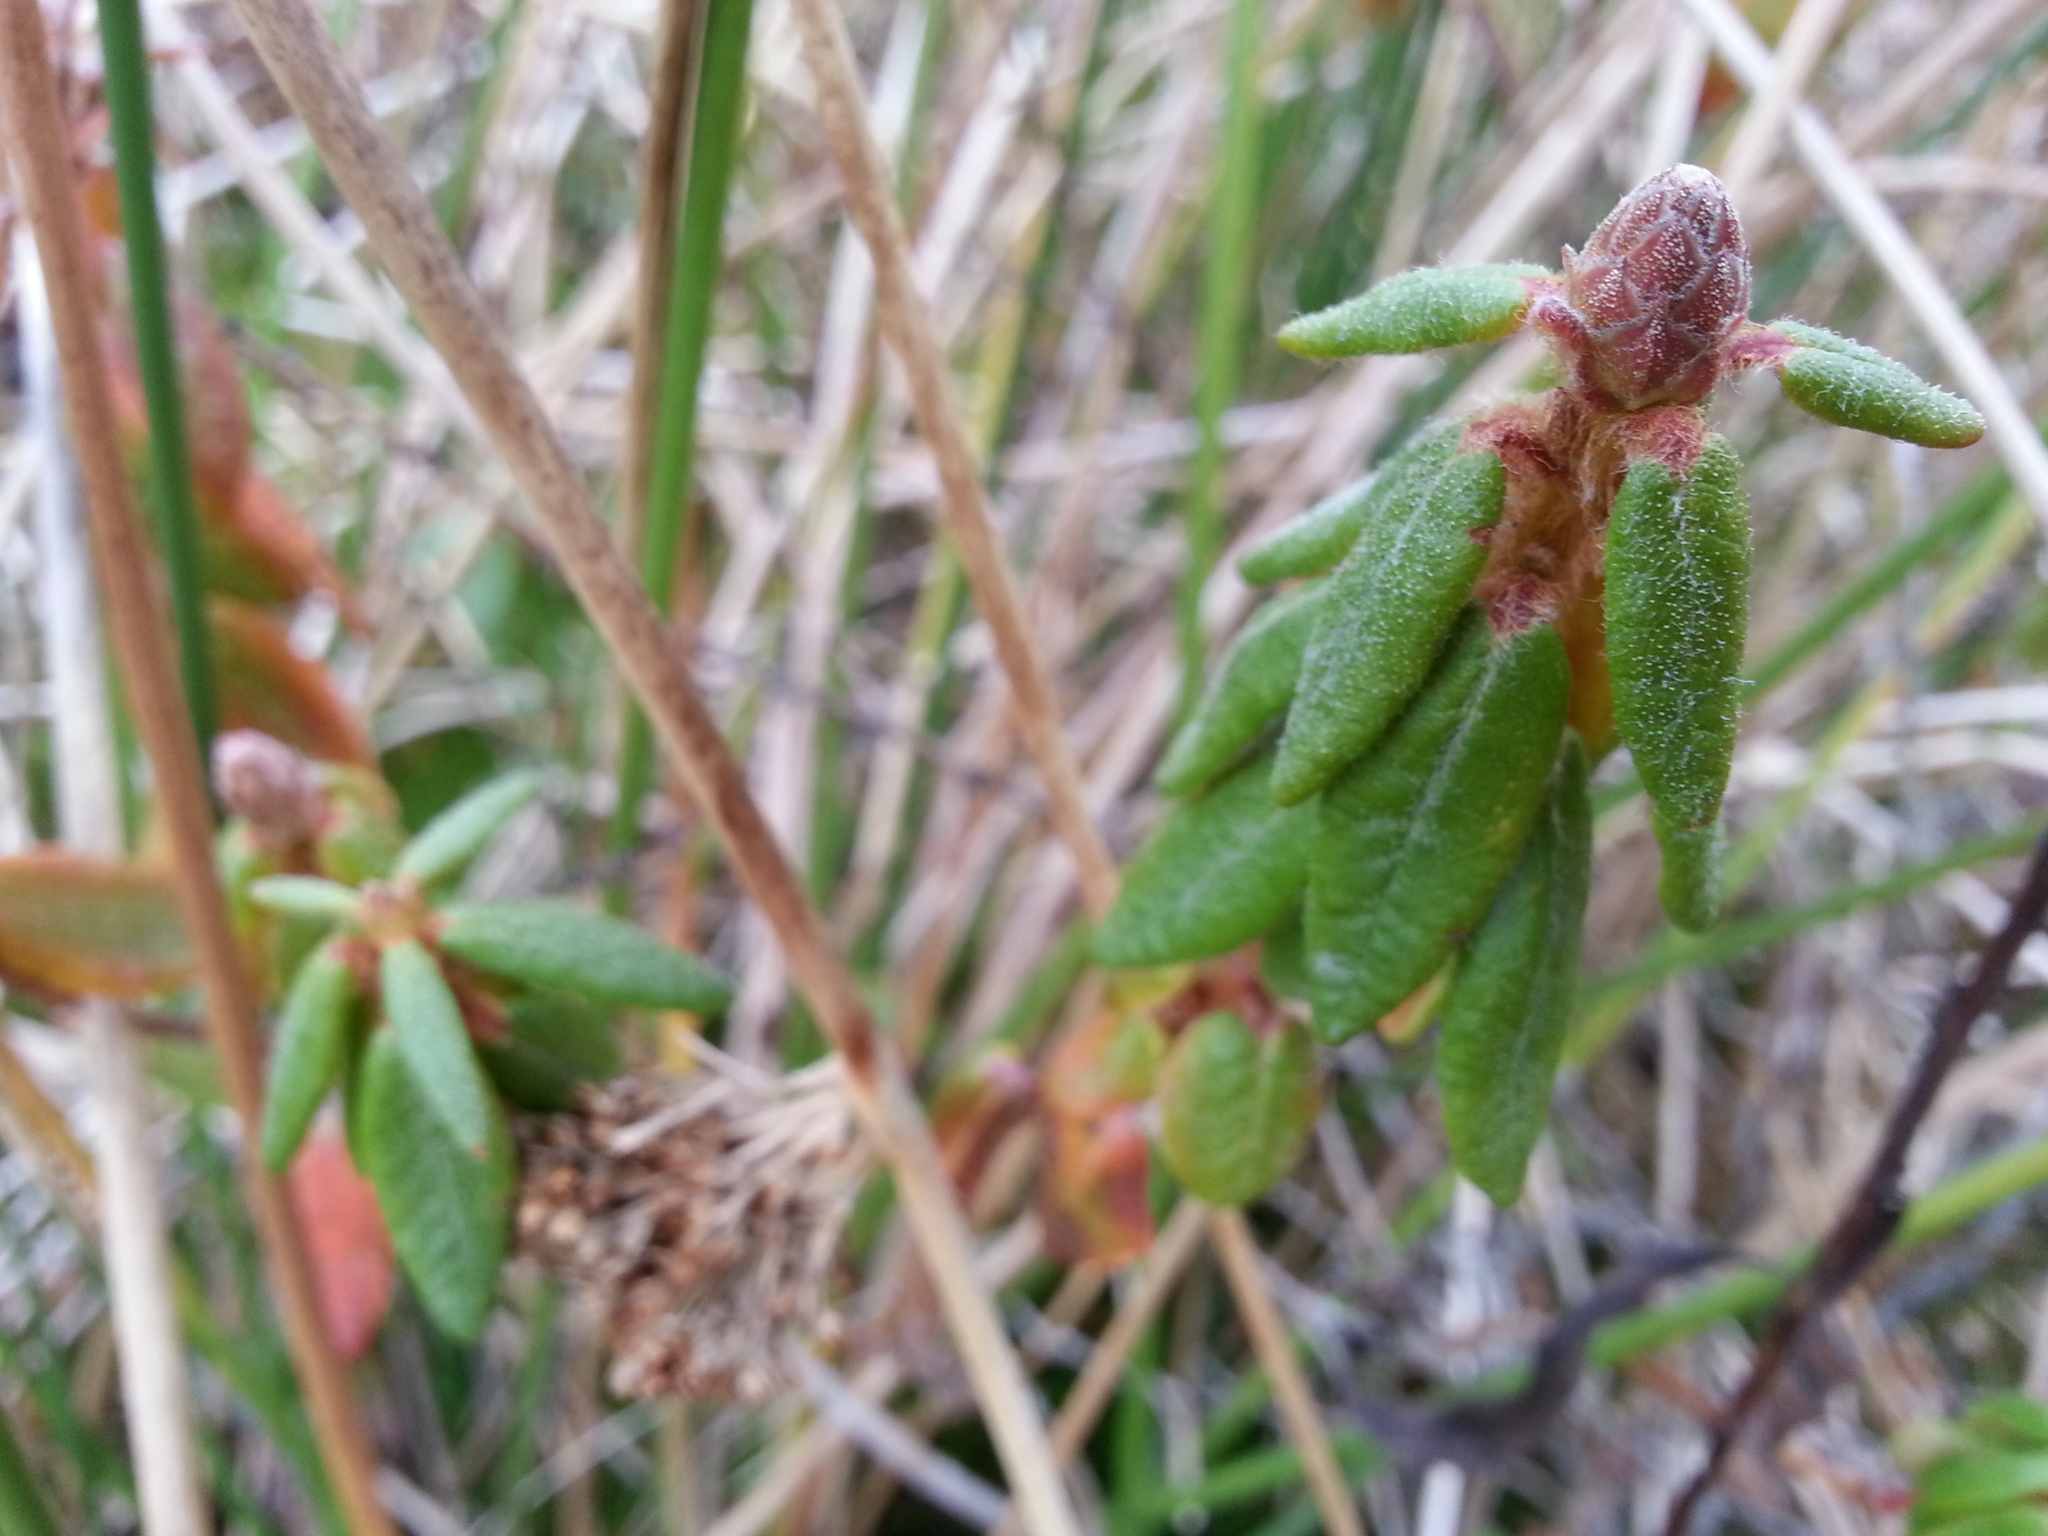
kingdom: Plantae
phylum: Tracheophyta
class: Magnoliopsida
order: Ericales
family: Ericaceae
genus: Rhododendron
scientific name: Rhododendron groenlandicum
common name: Bog labrador tea
